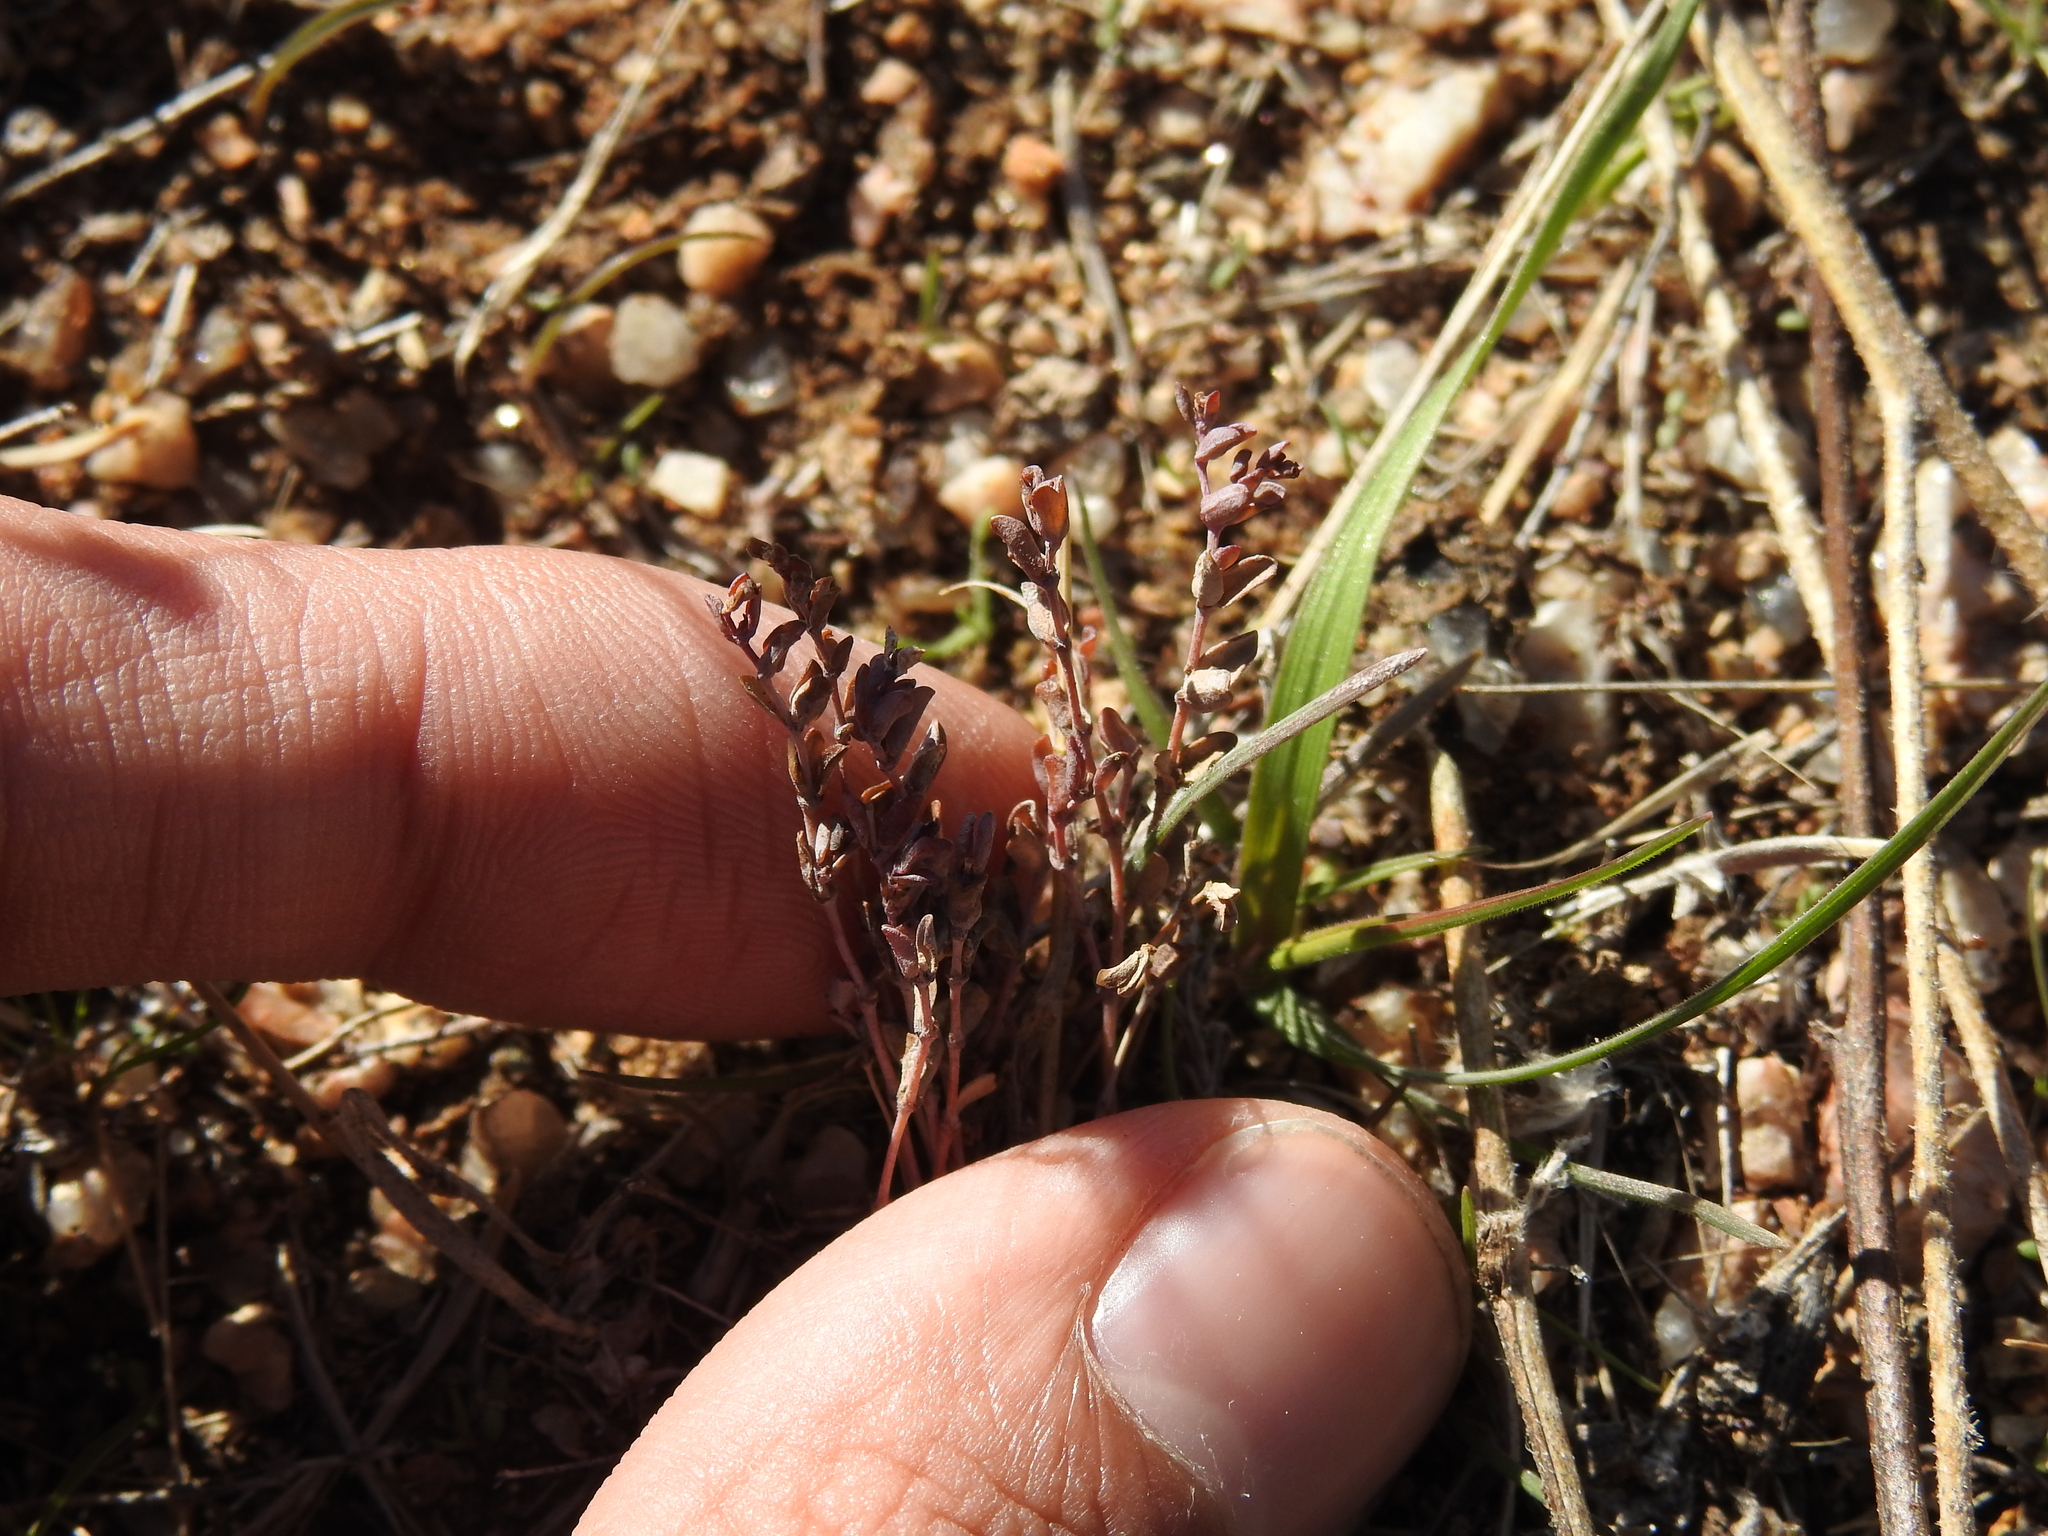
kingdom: Plantae
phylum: Tracheophyta
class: Magnoliopsida
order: Malpighiales
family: Euphorbiaceae
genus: Euphorbia
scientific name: Euphorbia polycarpa
